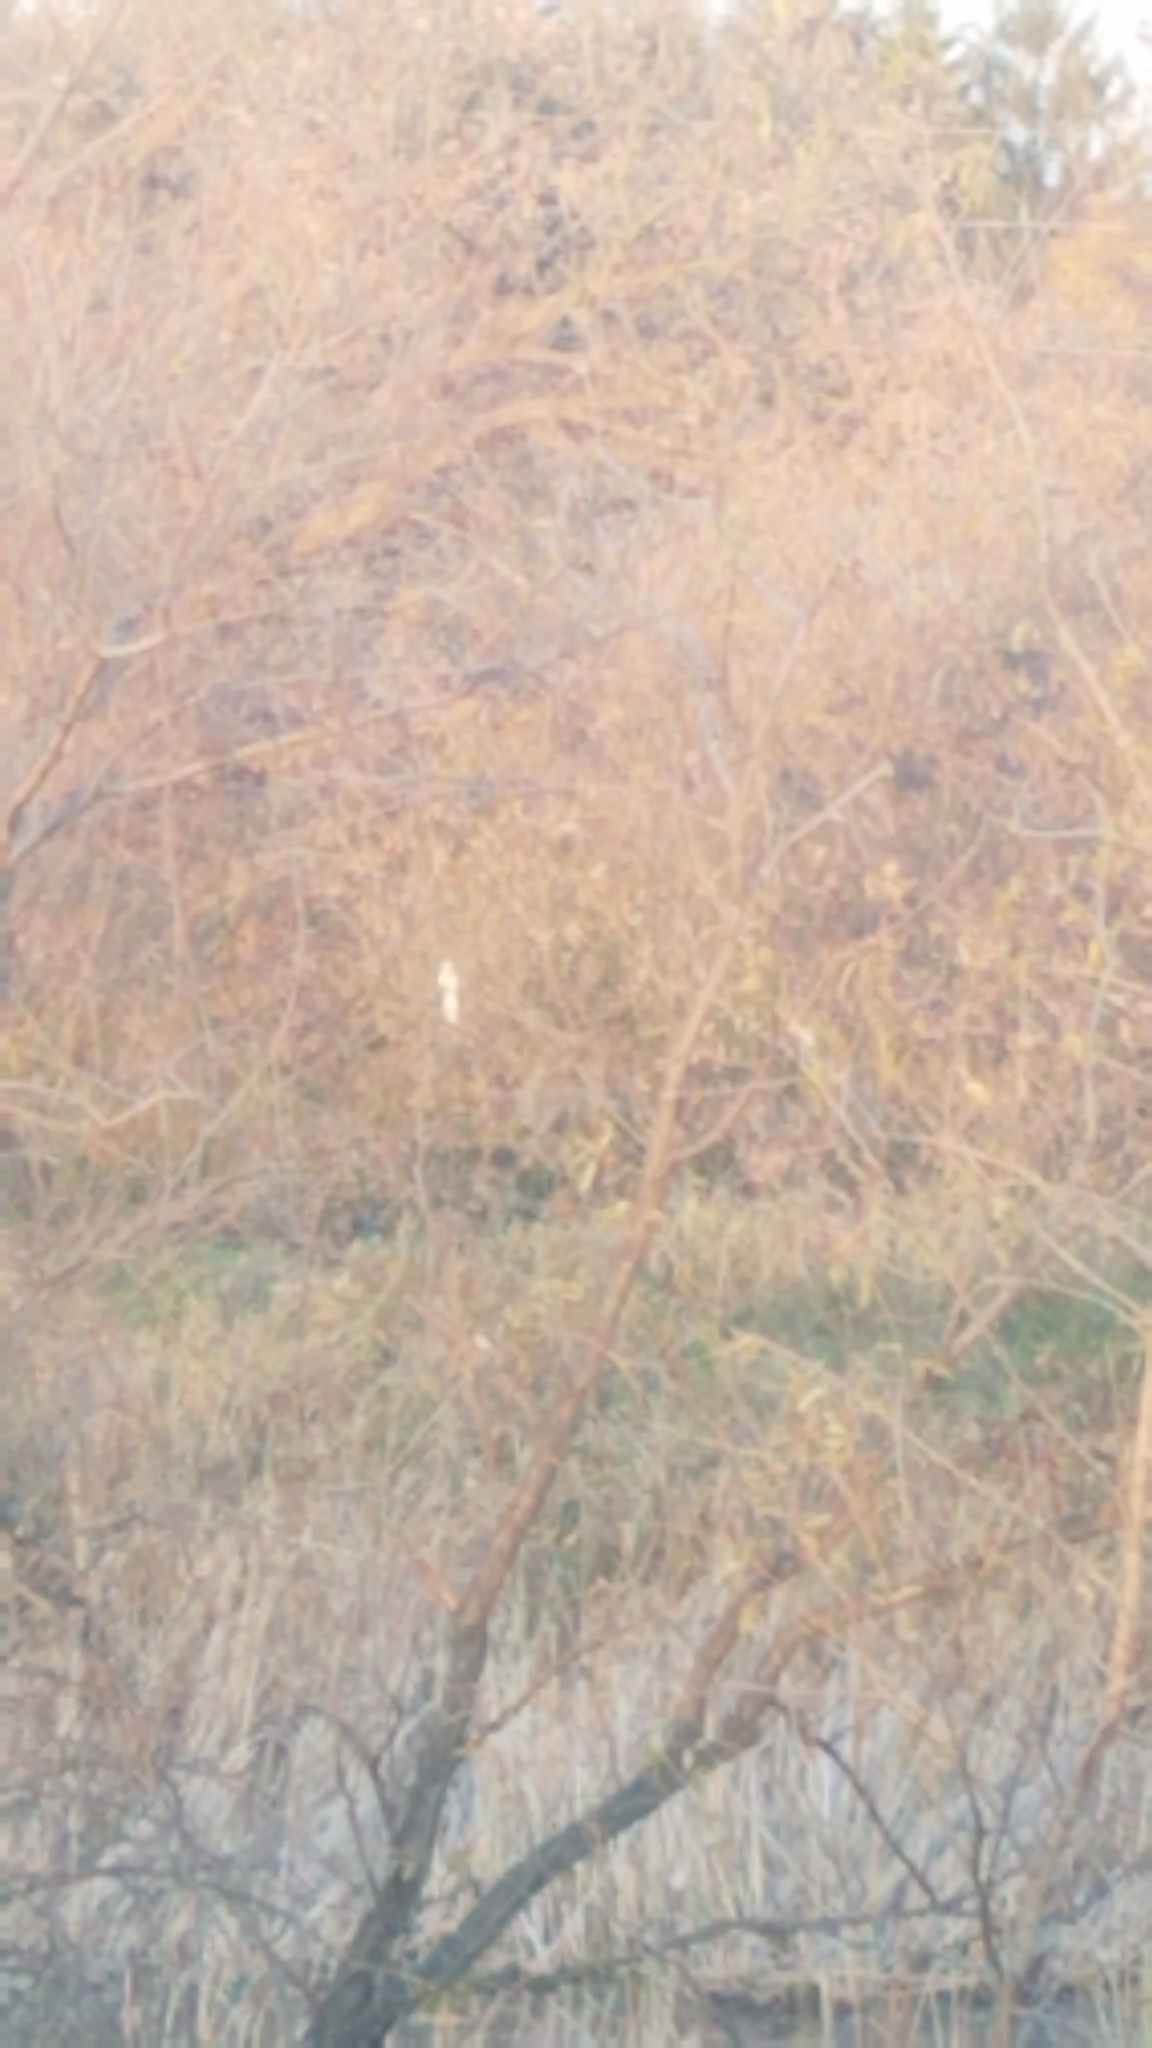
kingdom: Animalia
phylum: Chordata
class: Mammalia
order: Rodentia
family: Sciuridae
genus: Sciurus
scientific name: Sciurus carolinensis
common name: Eastern gray squirrel
